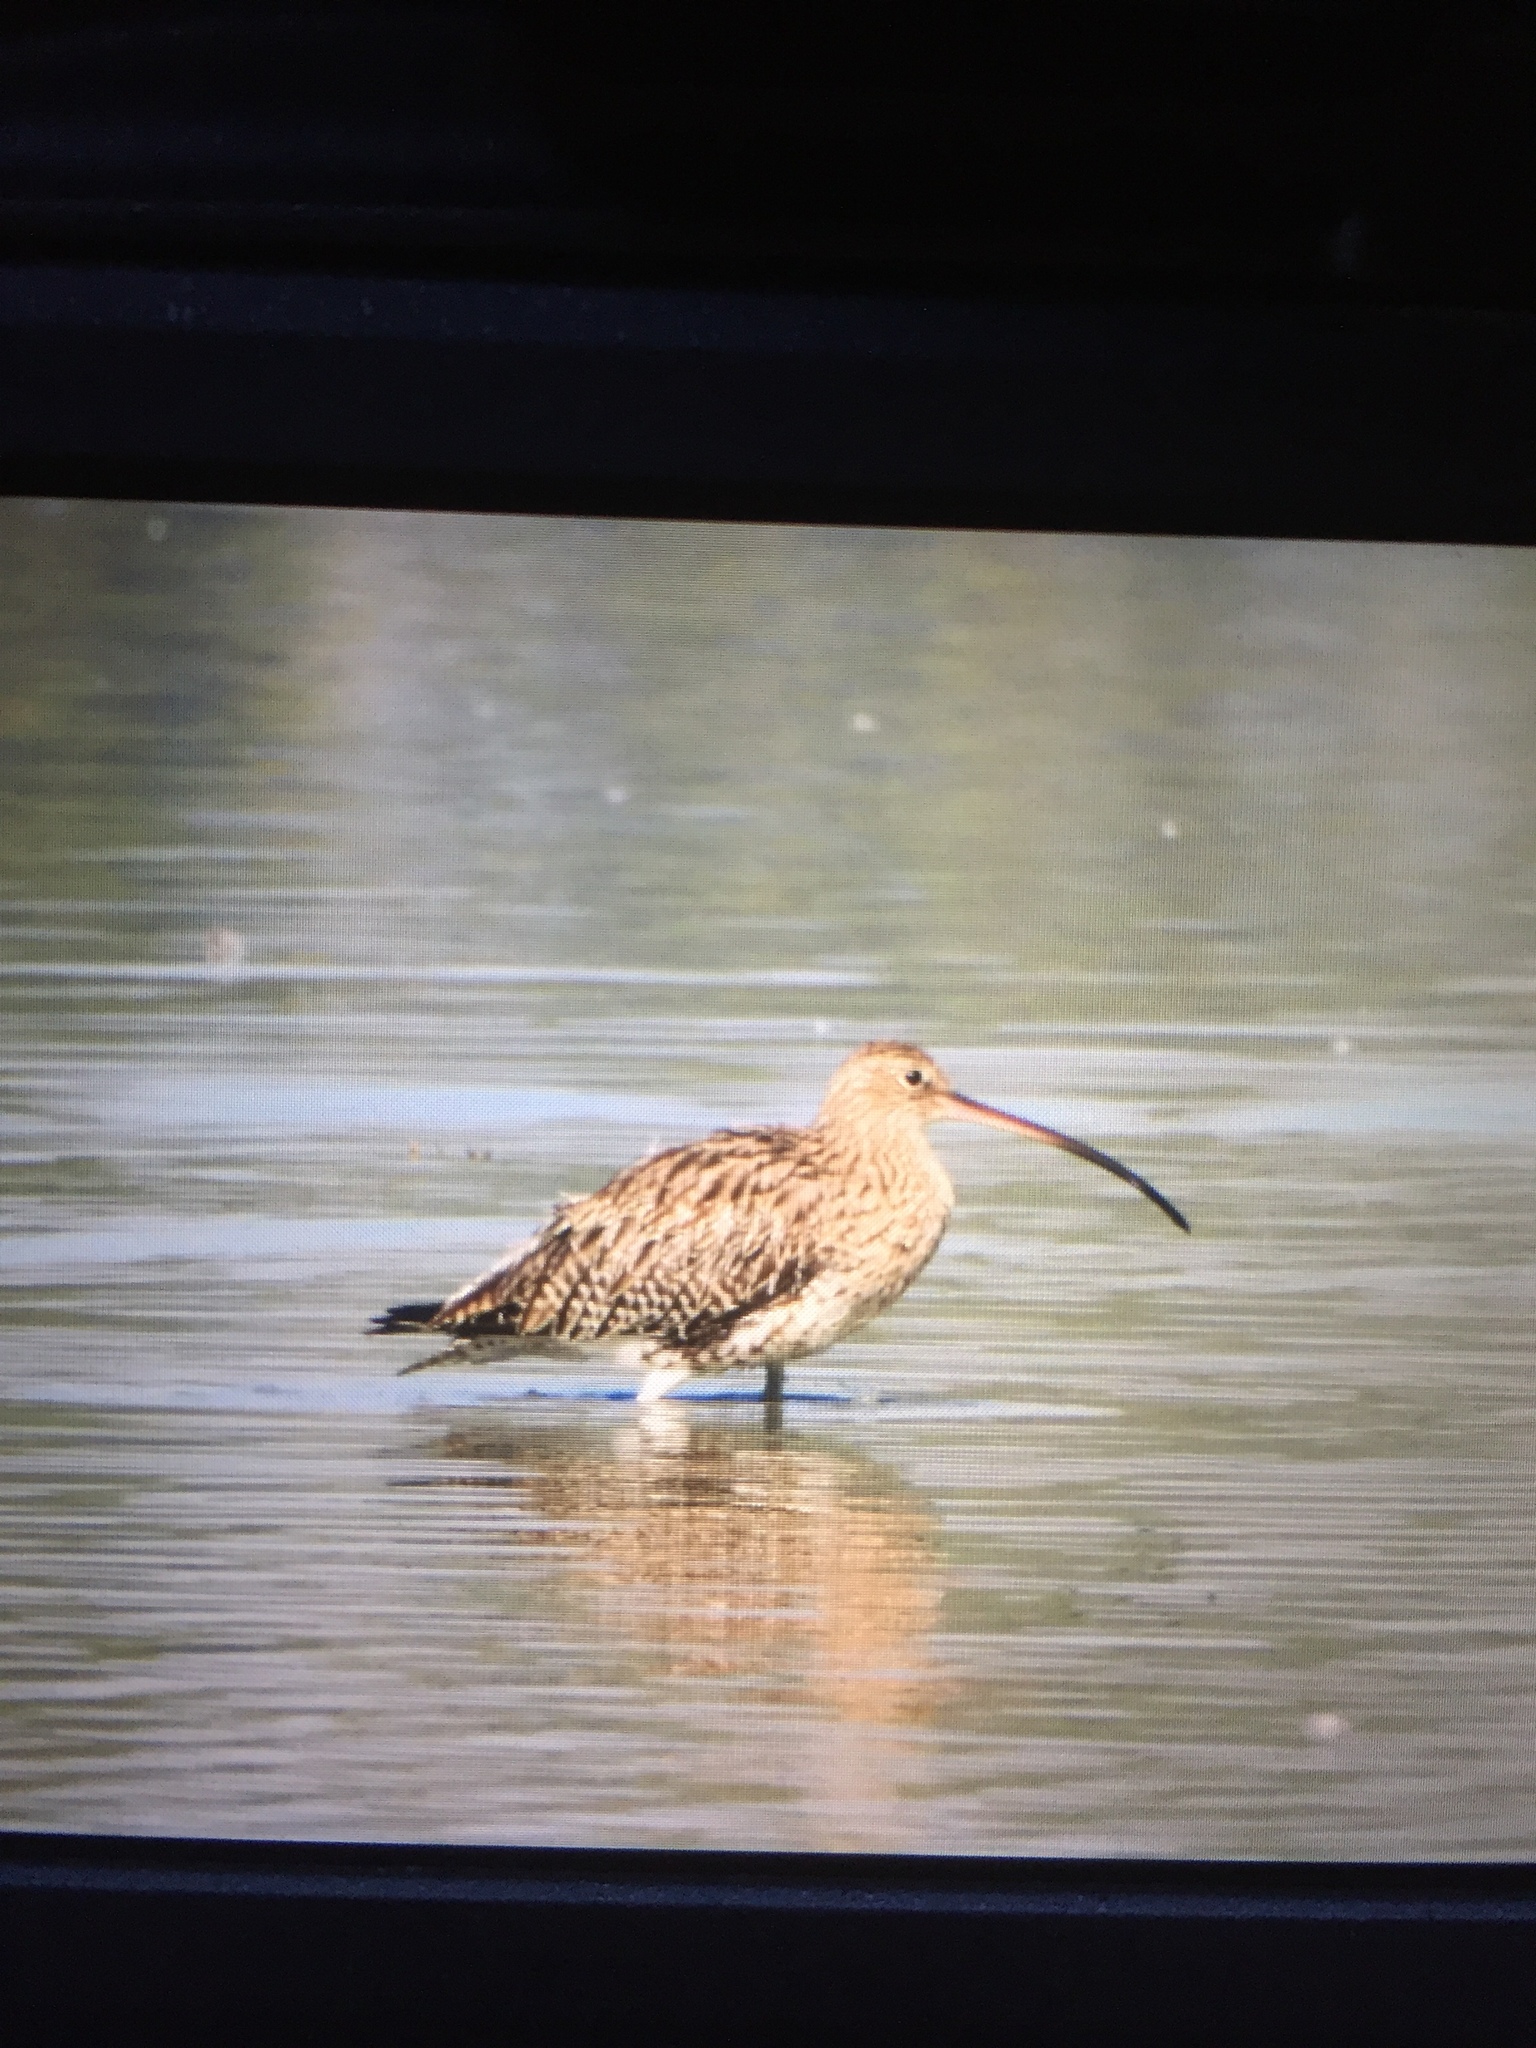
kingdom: Animalia
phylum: Chordata
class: Aves
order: Charadriiformes
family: Scolopacidae
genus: Numenius
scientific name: Numenius arquata
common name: Eurasian curlew
